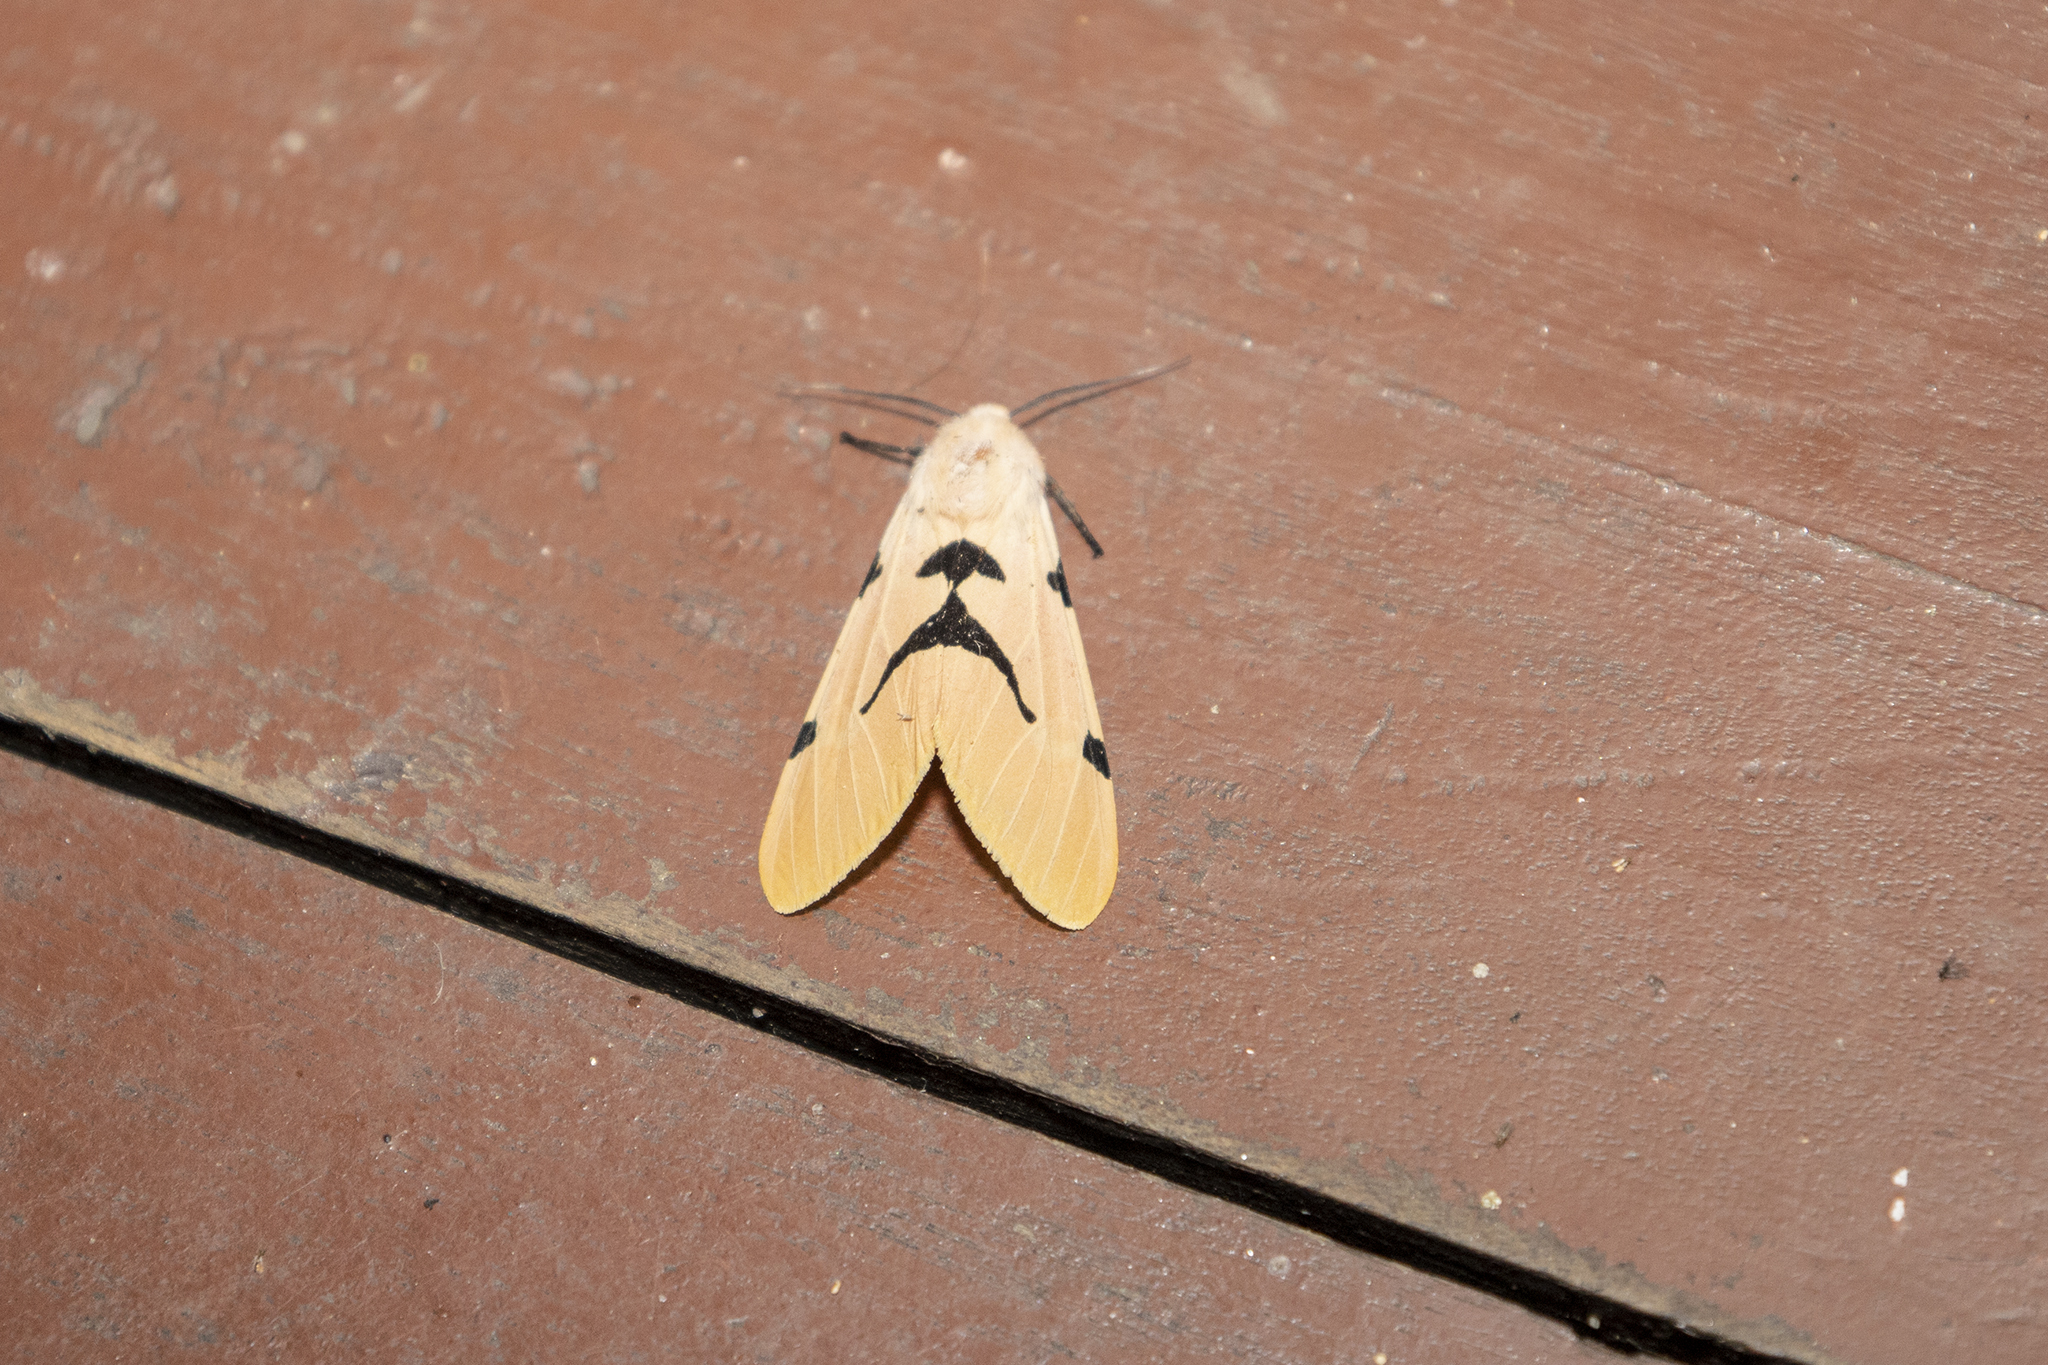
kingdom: Animalia
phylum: Arthropoda
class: Insecta
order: Lepidoptera
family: Erebidae
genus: Spilarctia
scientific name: Spilarctia
